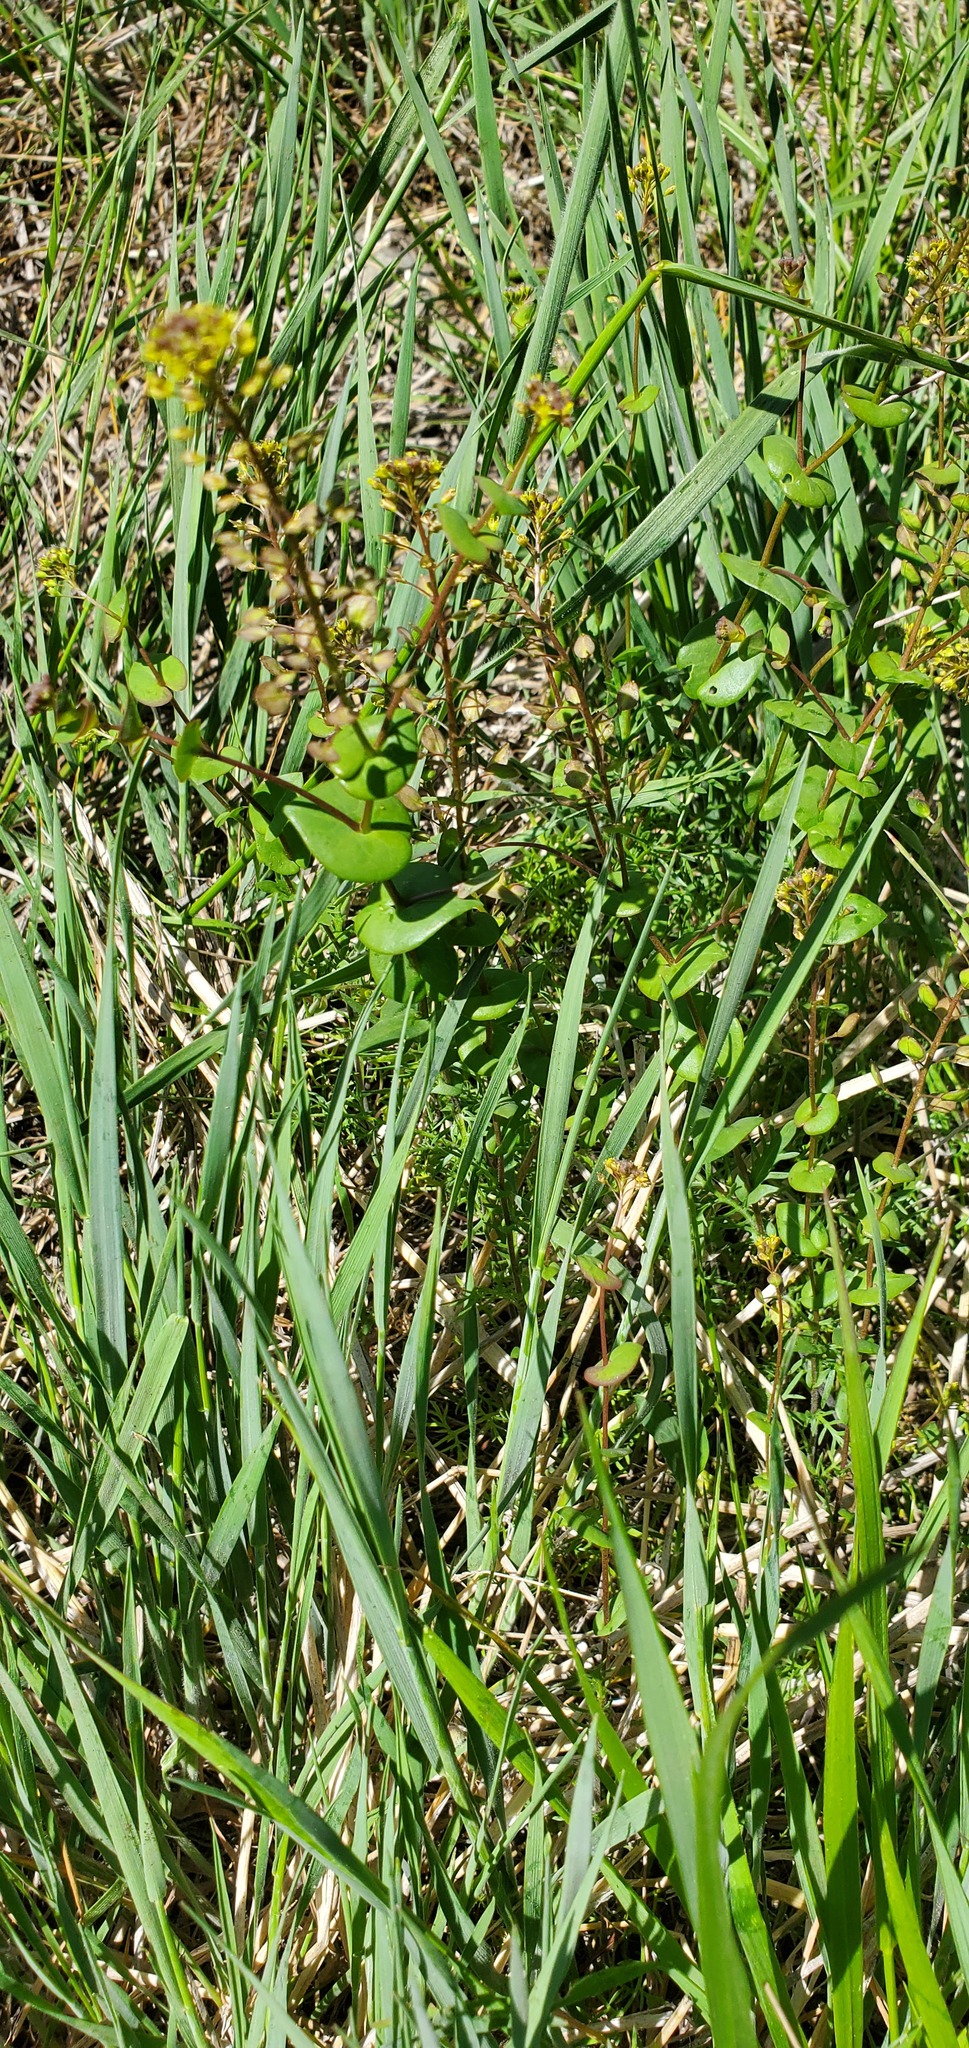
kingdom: Plantae
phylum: Tracheophyta
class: Magnoliopsida
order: Brassicales
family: Brassicaceae
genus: Lepidium
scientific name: Lepidium perfoliatum
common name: Perfoliate pepperwort
